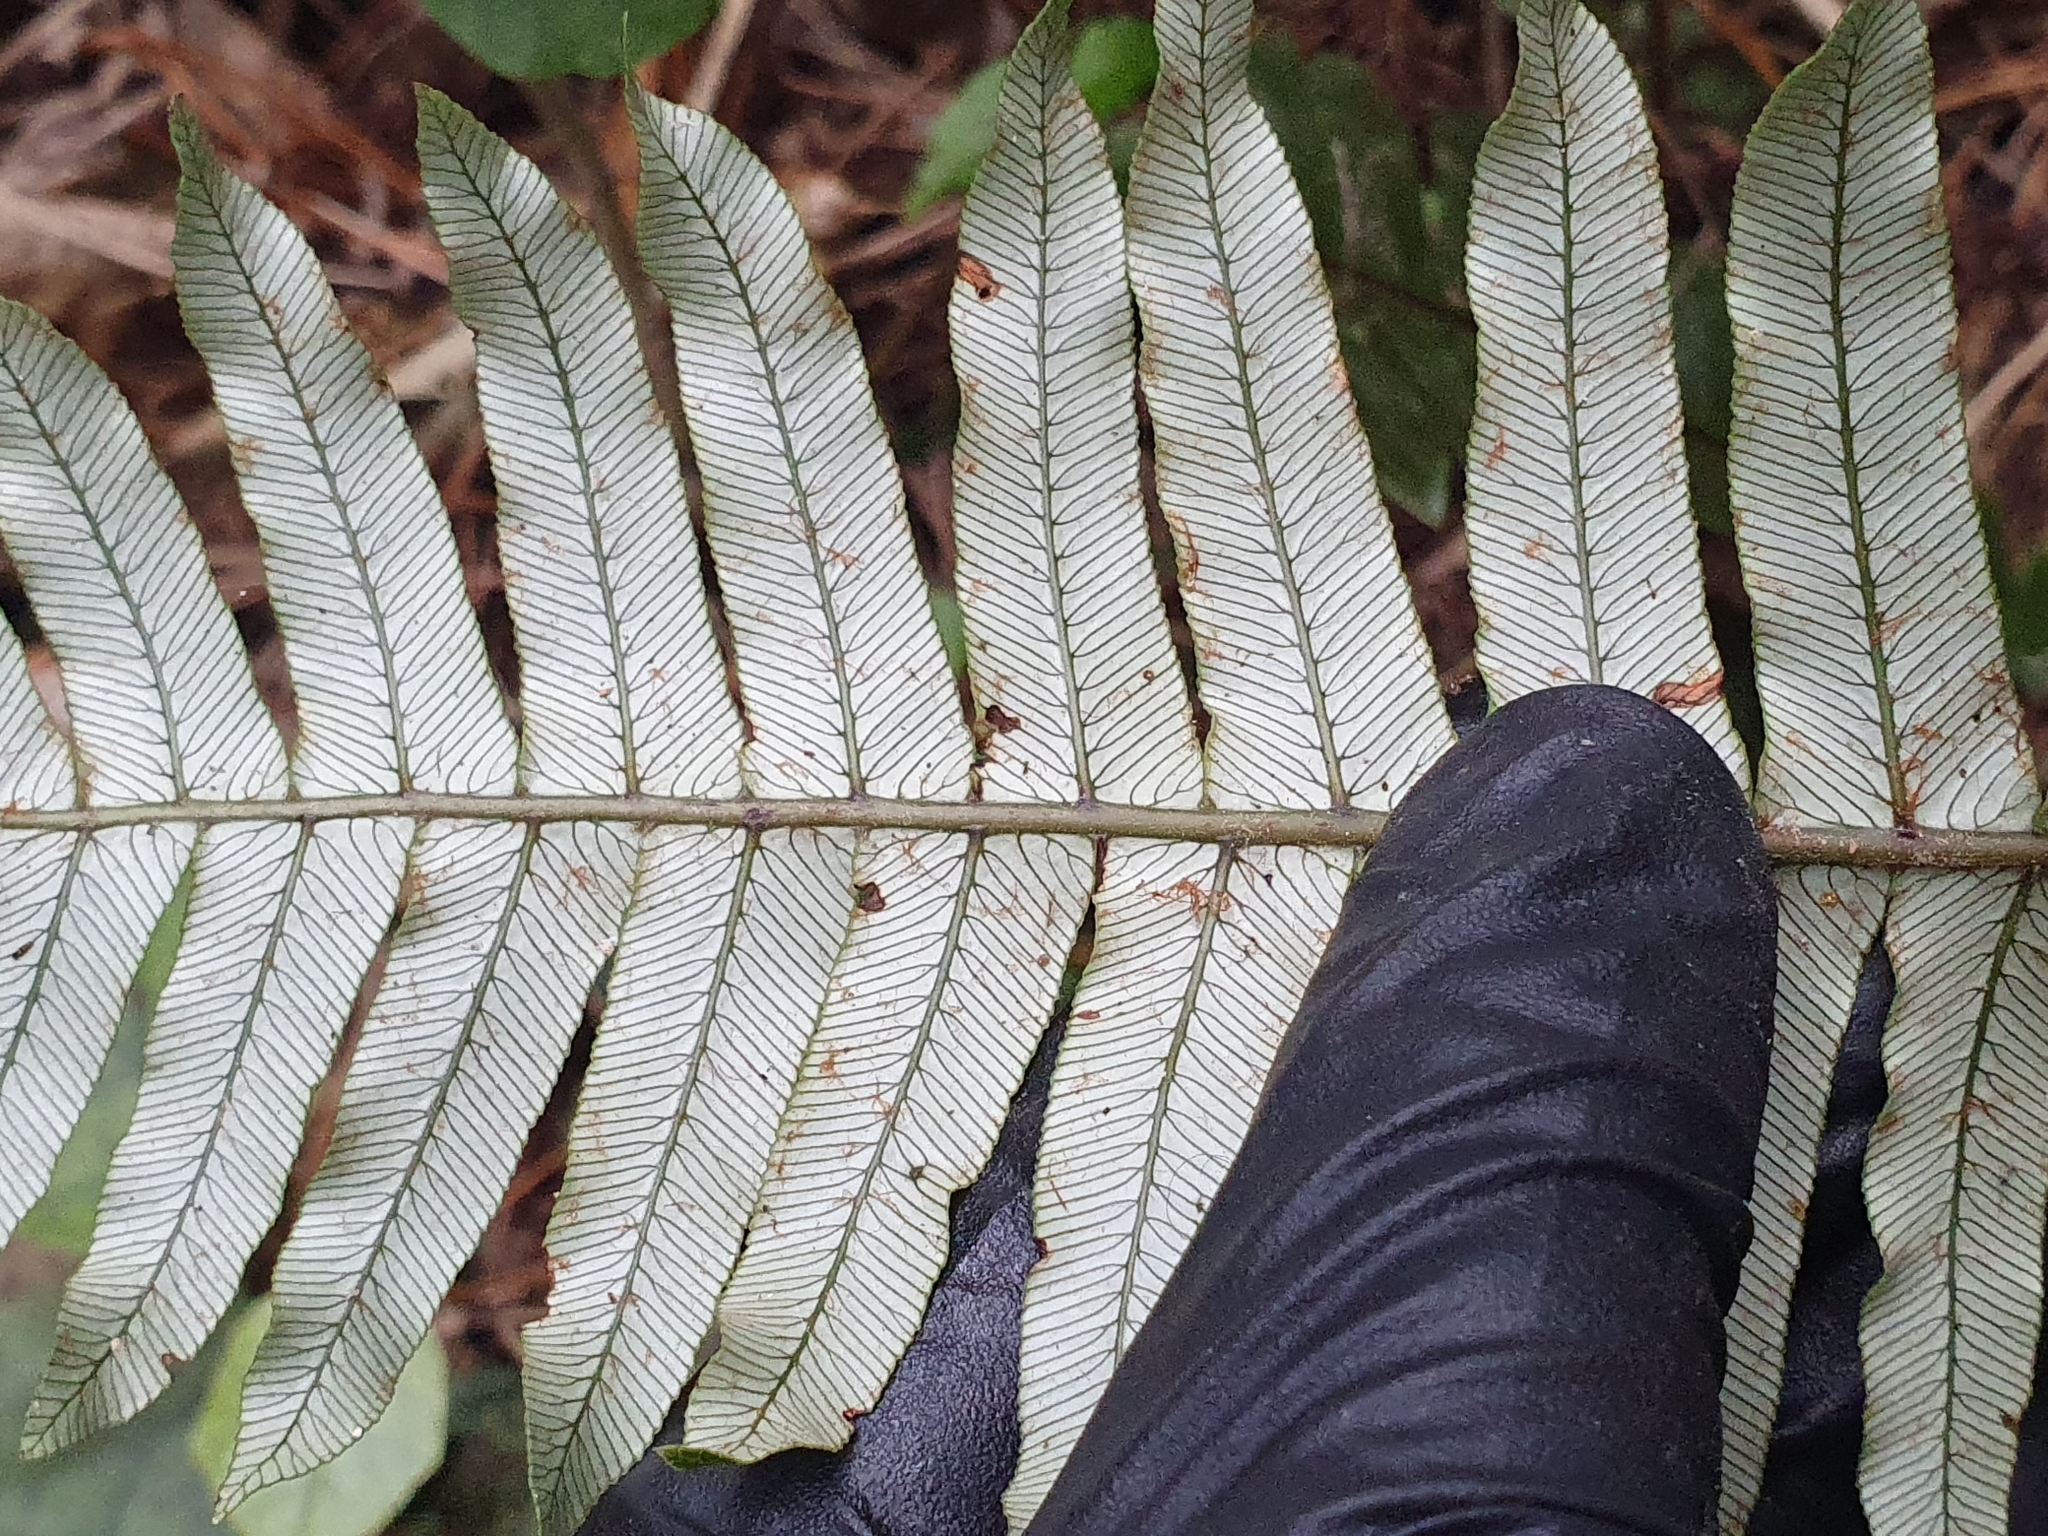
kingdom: Plantae
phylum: Tracheophyta
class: Polypodiopsida
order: Polypodiales
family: Blechnaceae
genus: Lomaria
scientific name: Lomaria discolor
